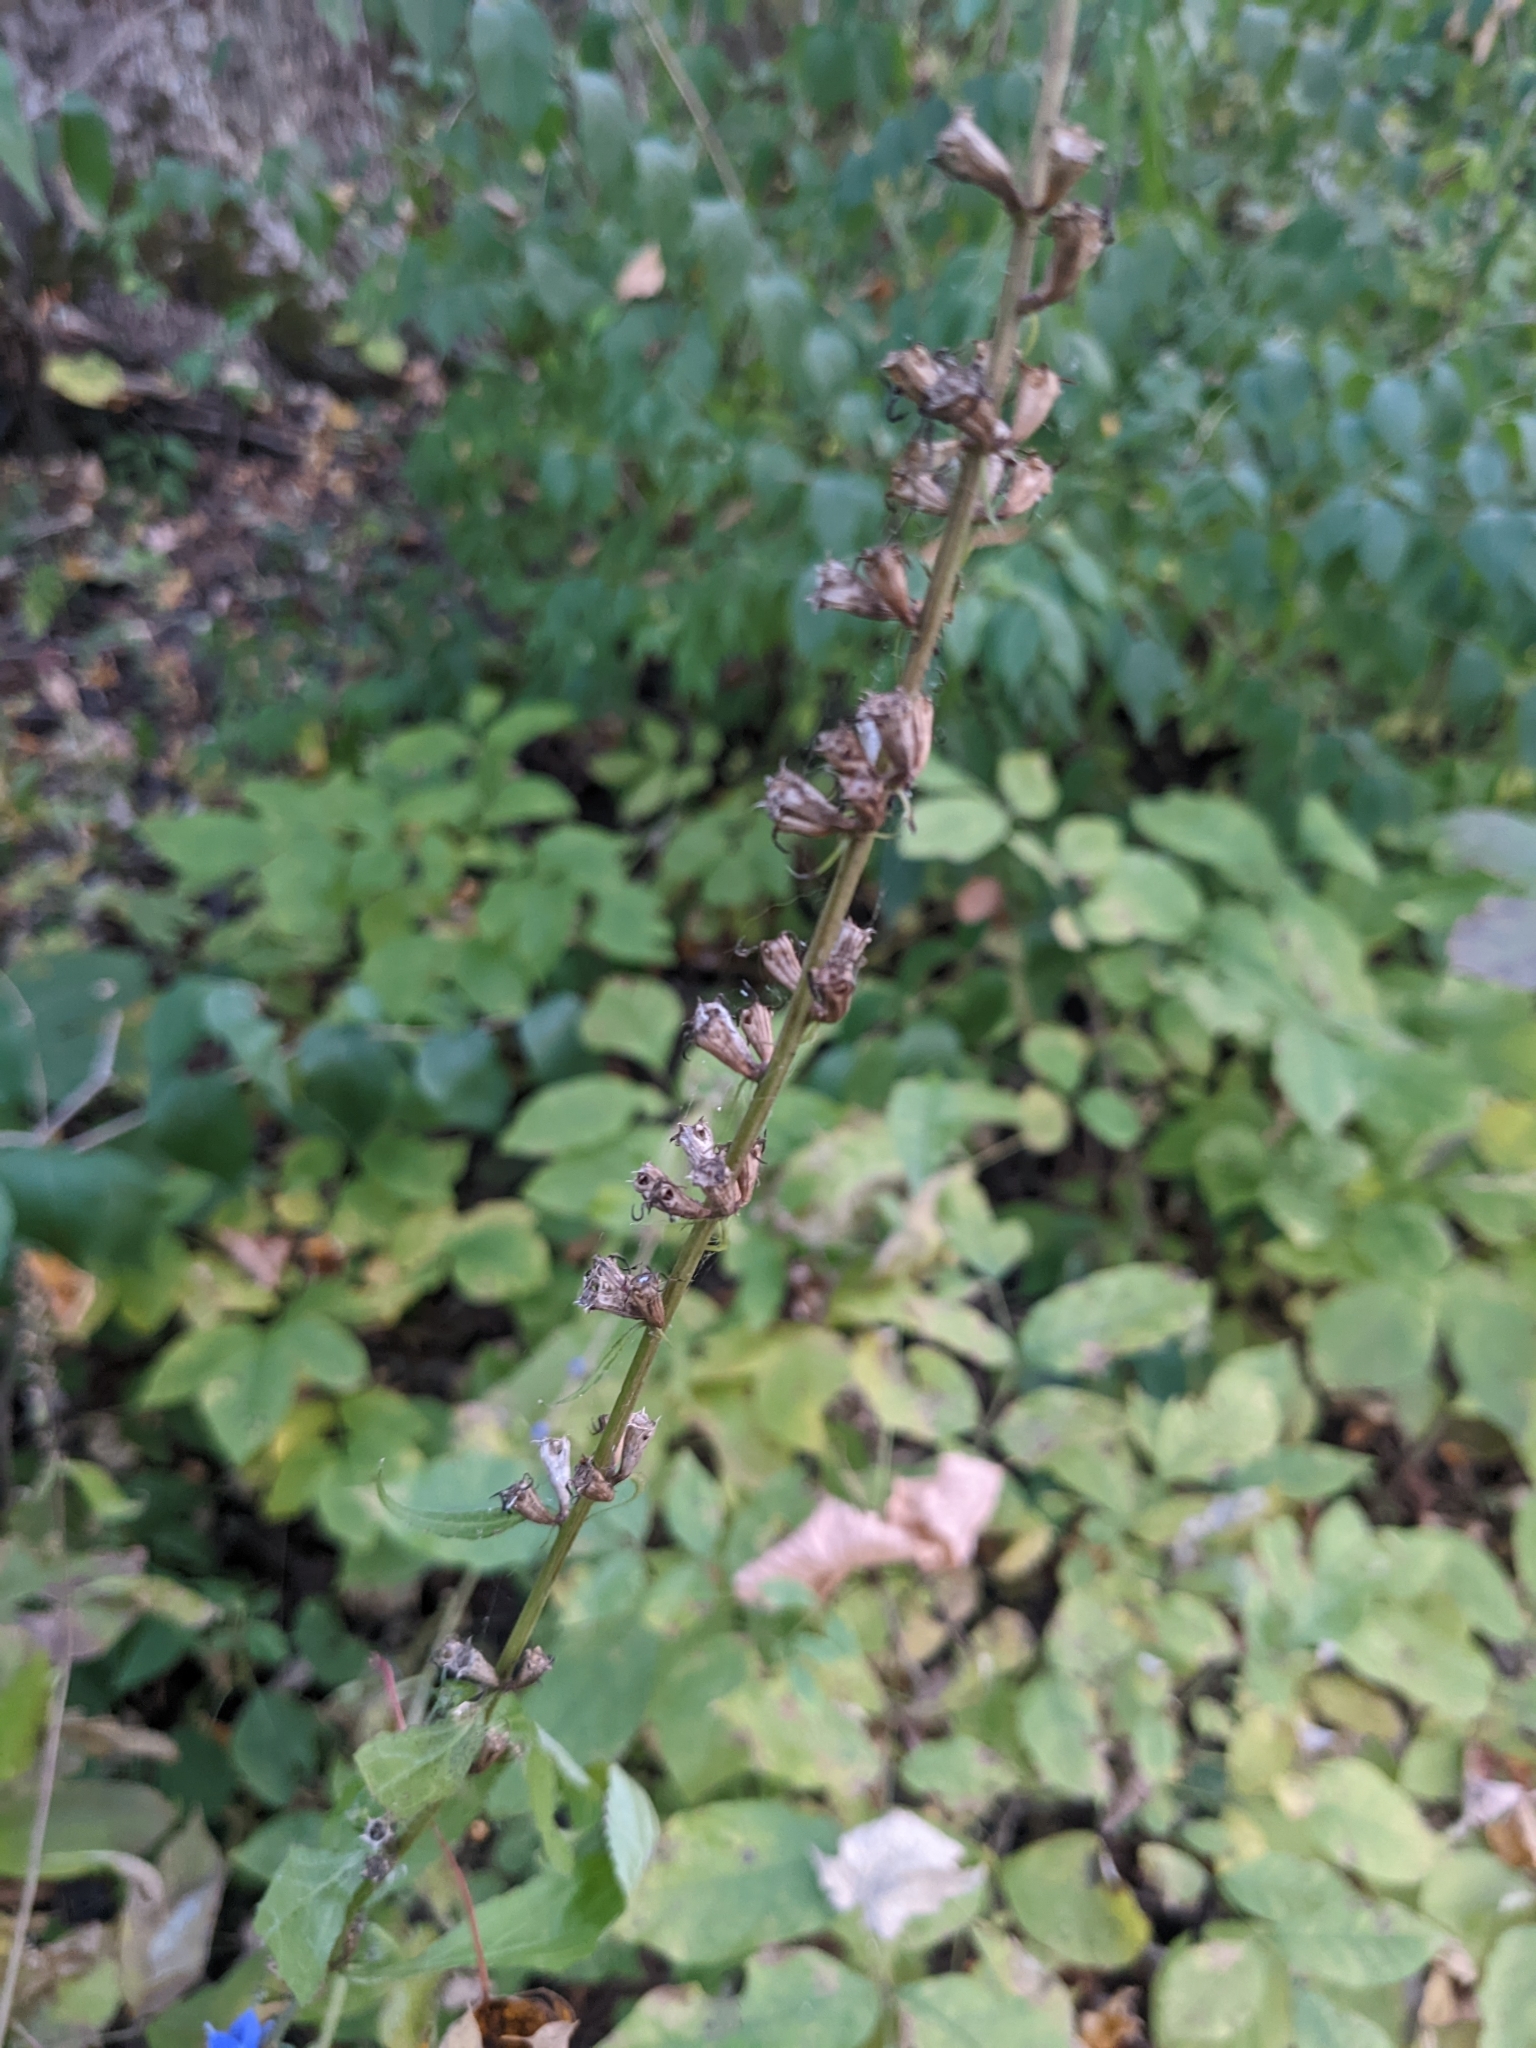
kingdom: Plantae
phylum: Tracheophyta
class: Magnoliopsida
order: Asterales
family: Campanulaceae
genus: Campanulastrum
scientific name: Campanulastrum americanum
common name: American bellflower
